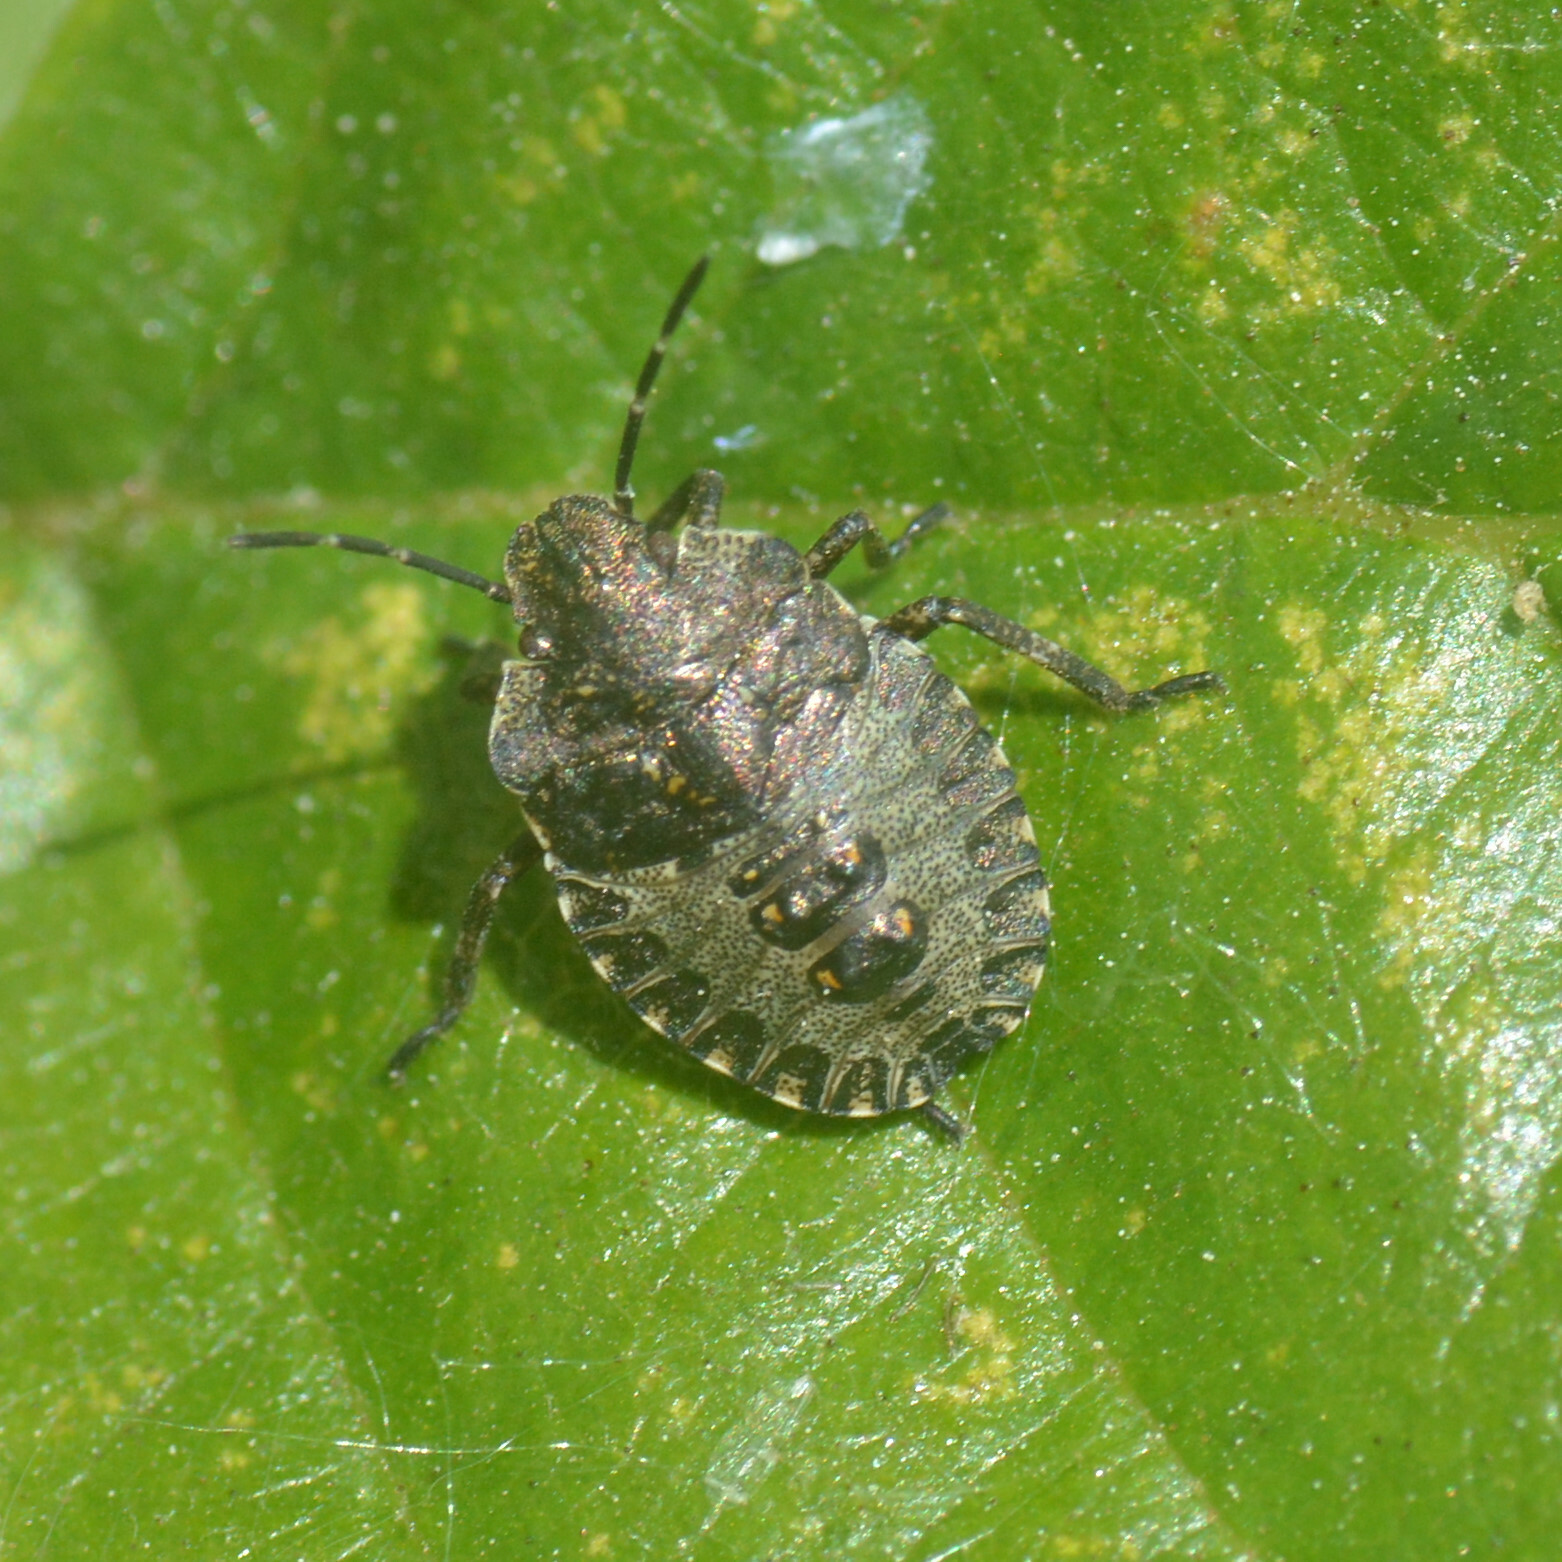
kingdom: Animalia
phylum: Arthropoda
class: Insecta
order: Hemiptera
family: Pentatomidae
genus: Pentatoma
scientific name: Pentatoma rufipes
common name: Forest bug
